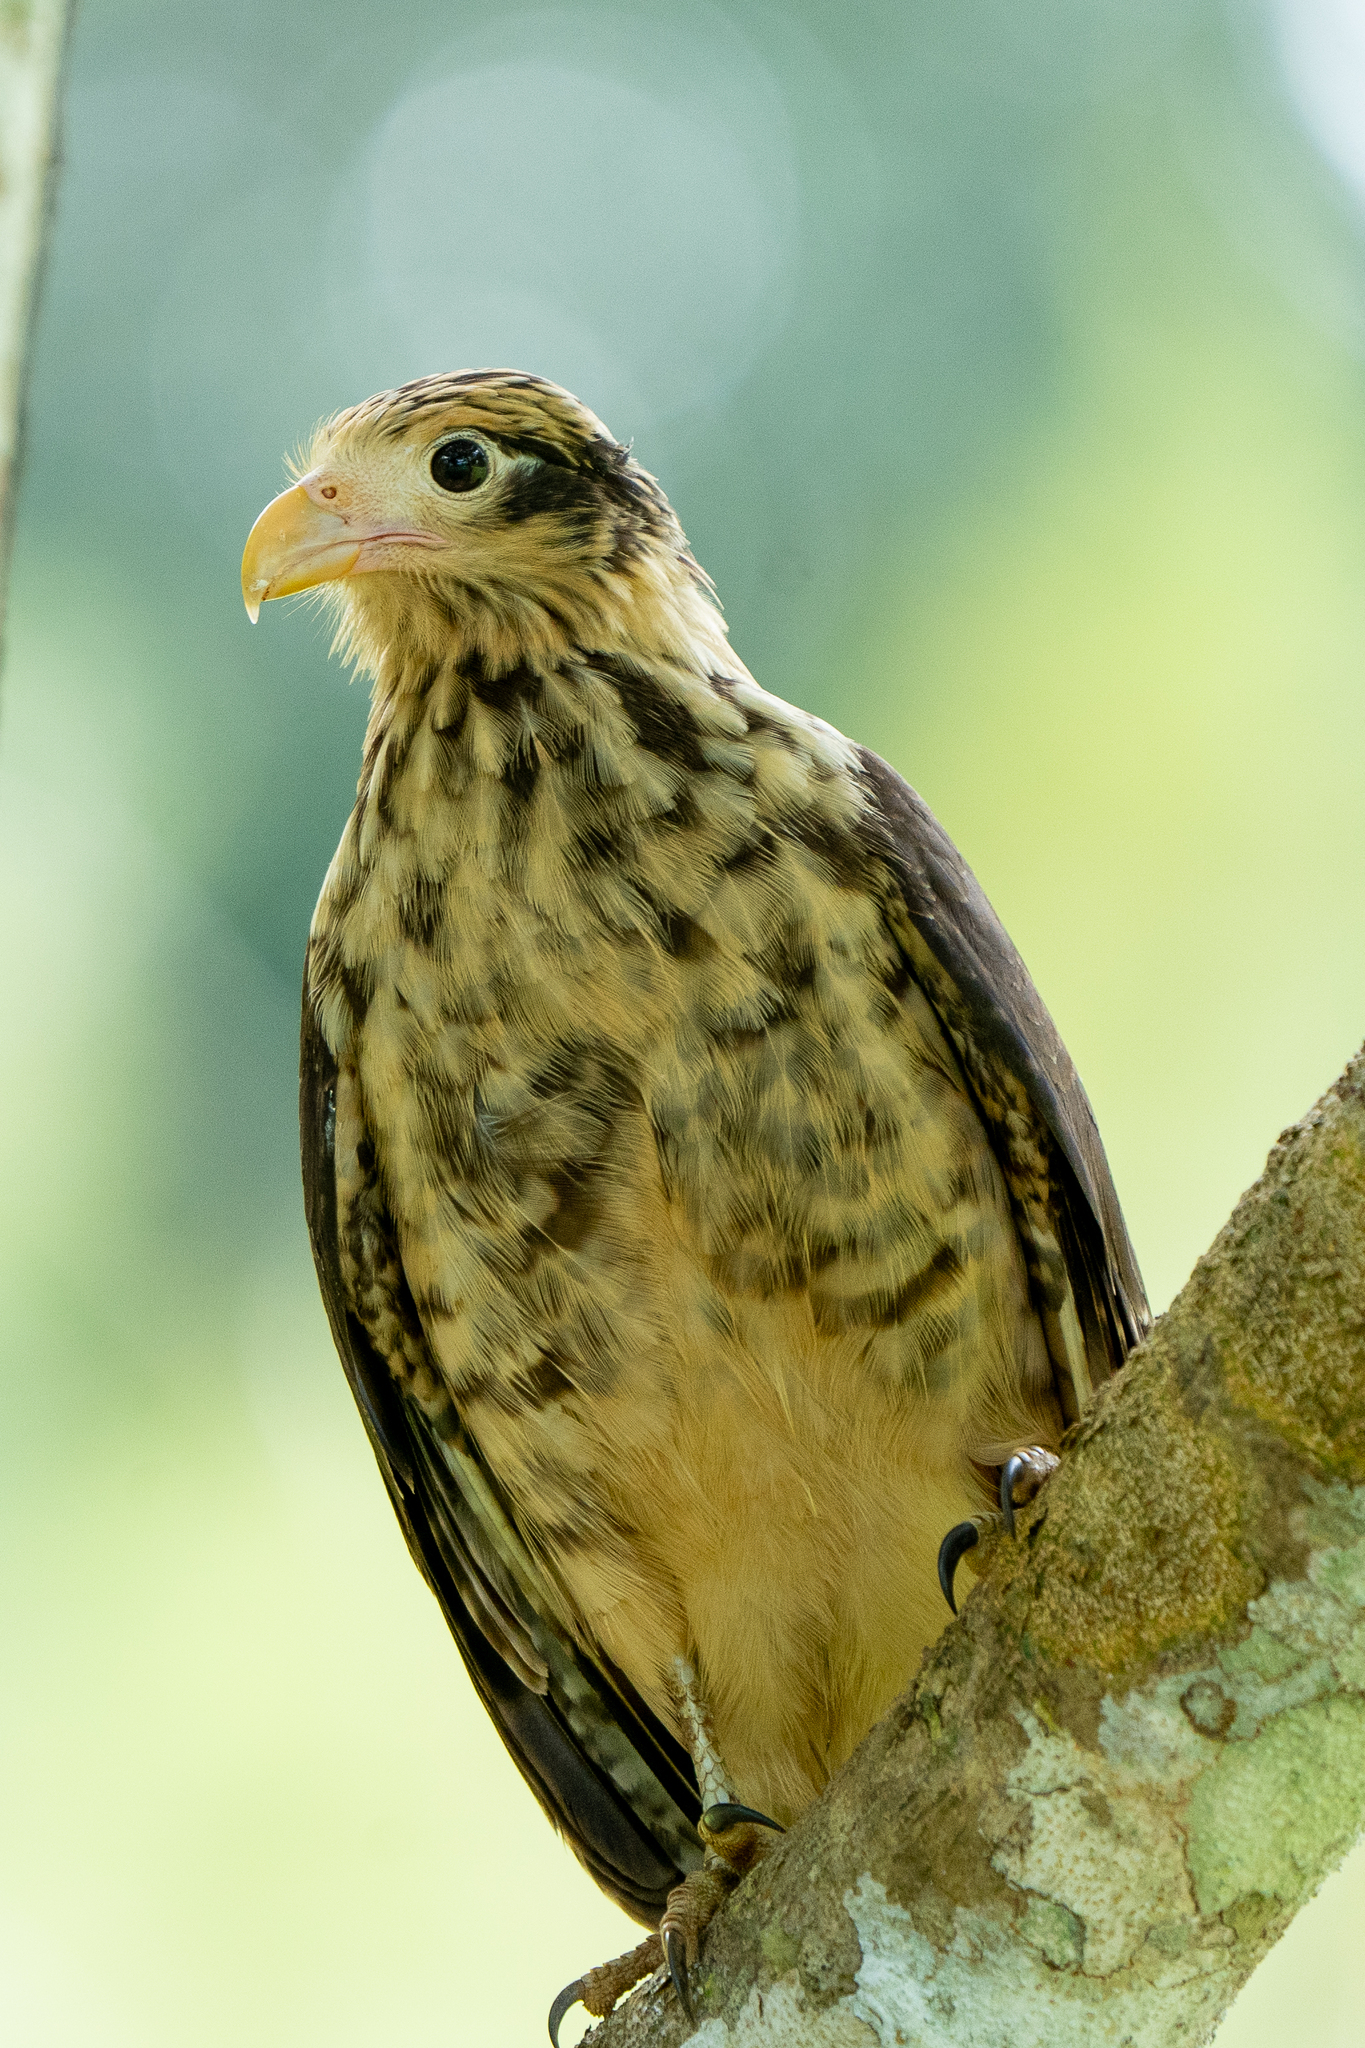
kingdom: Animalia
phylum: Chordata
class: Aves
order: Falconiformes
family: Falconidae
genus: Daptrius
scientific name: Daptrius
